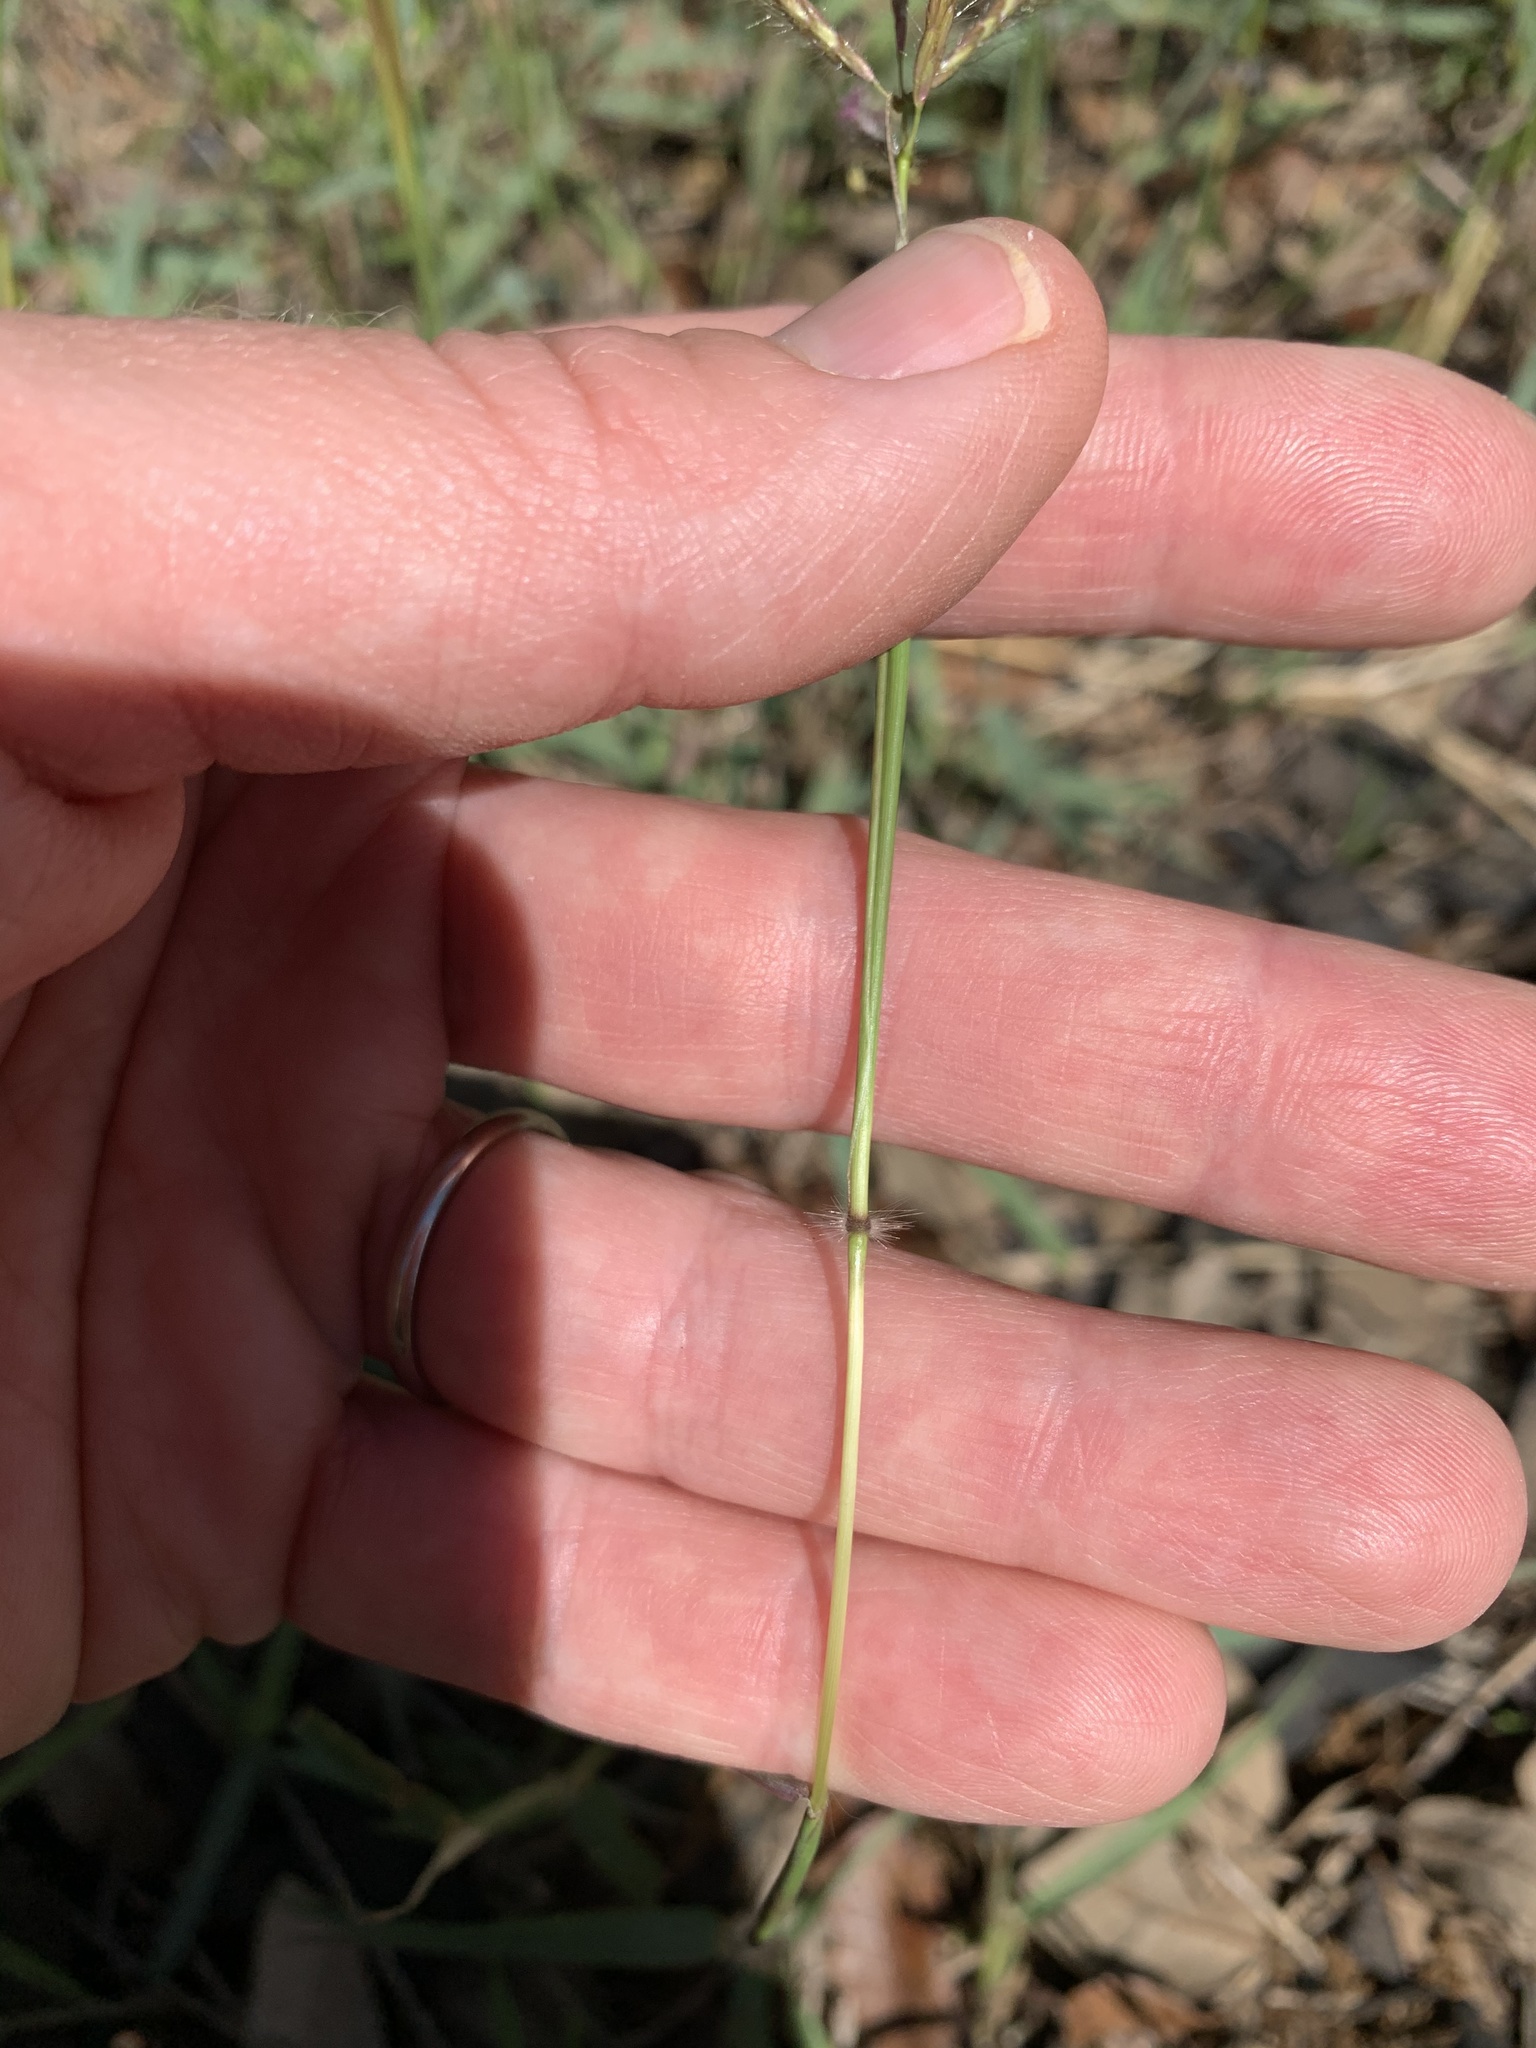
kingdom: Plantae
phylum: Tracheophyta
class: Liliopsida
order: Poales
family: Poaceae
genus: Dichanthium
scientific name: Dichanthium annulatum
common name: Kleberg's bluestem
